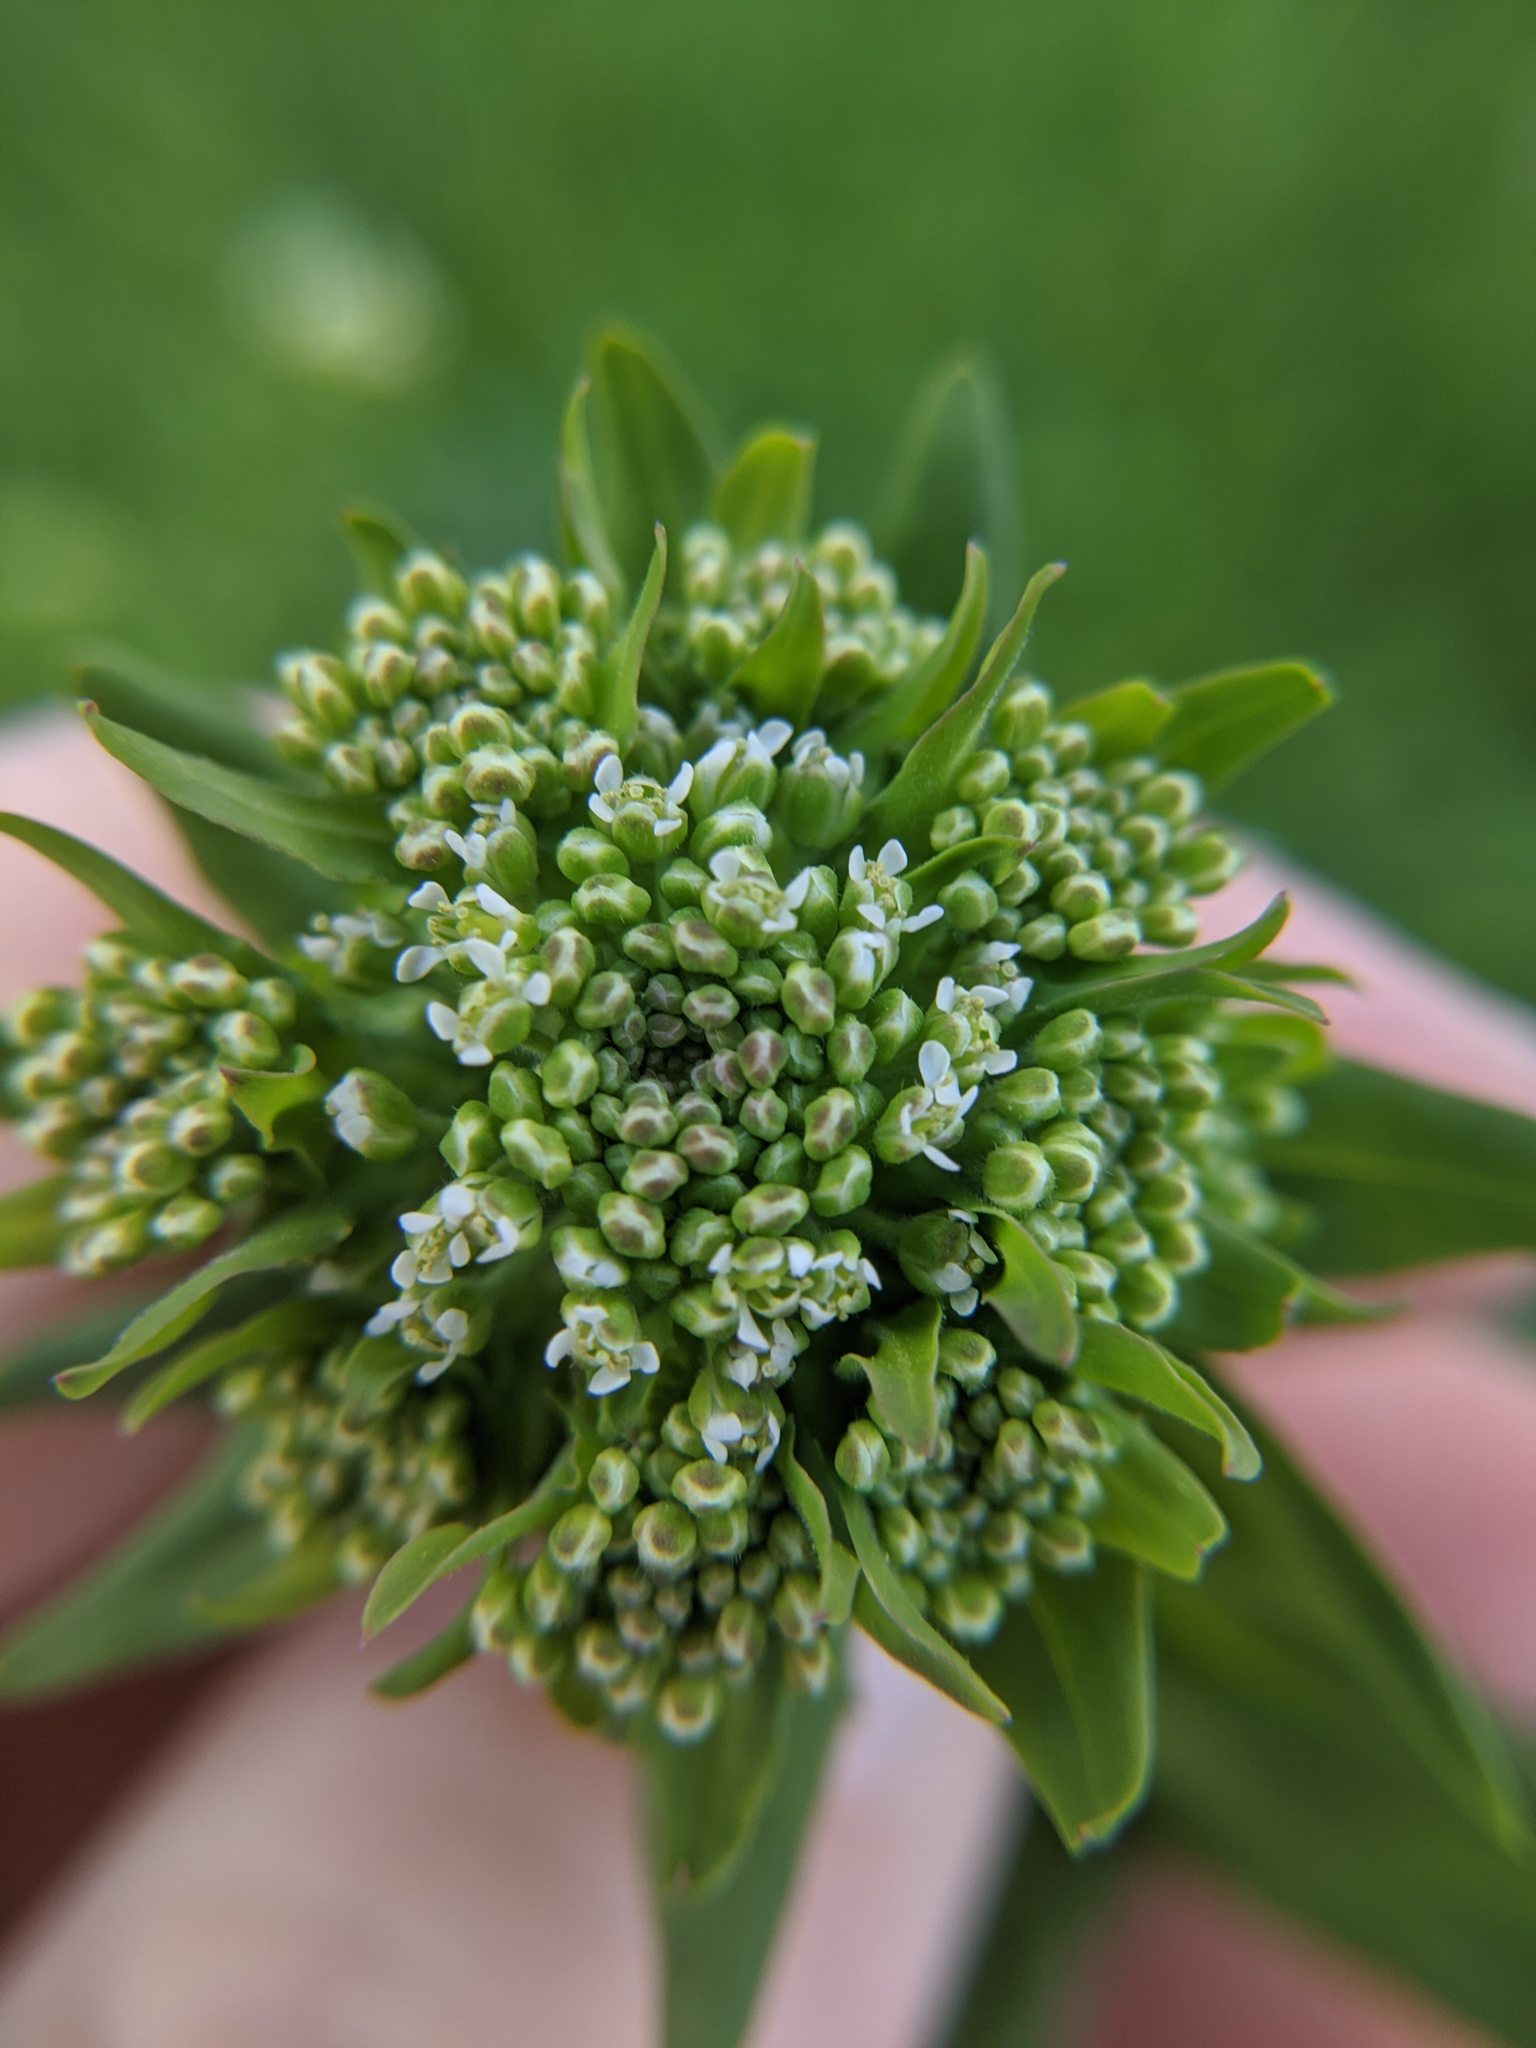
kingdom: Plantae
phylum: Tracheophyta
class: Magnoliopsida
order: Brassicales
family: Brassicaceae
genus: Lepidium
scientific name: Lepidium campestre
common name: Field pepperwort
